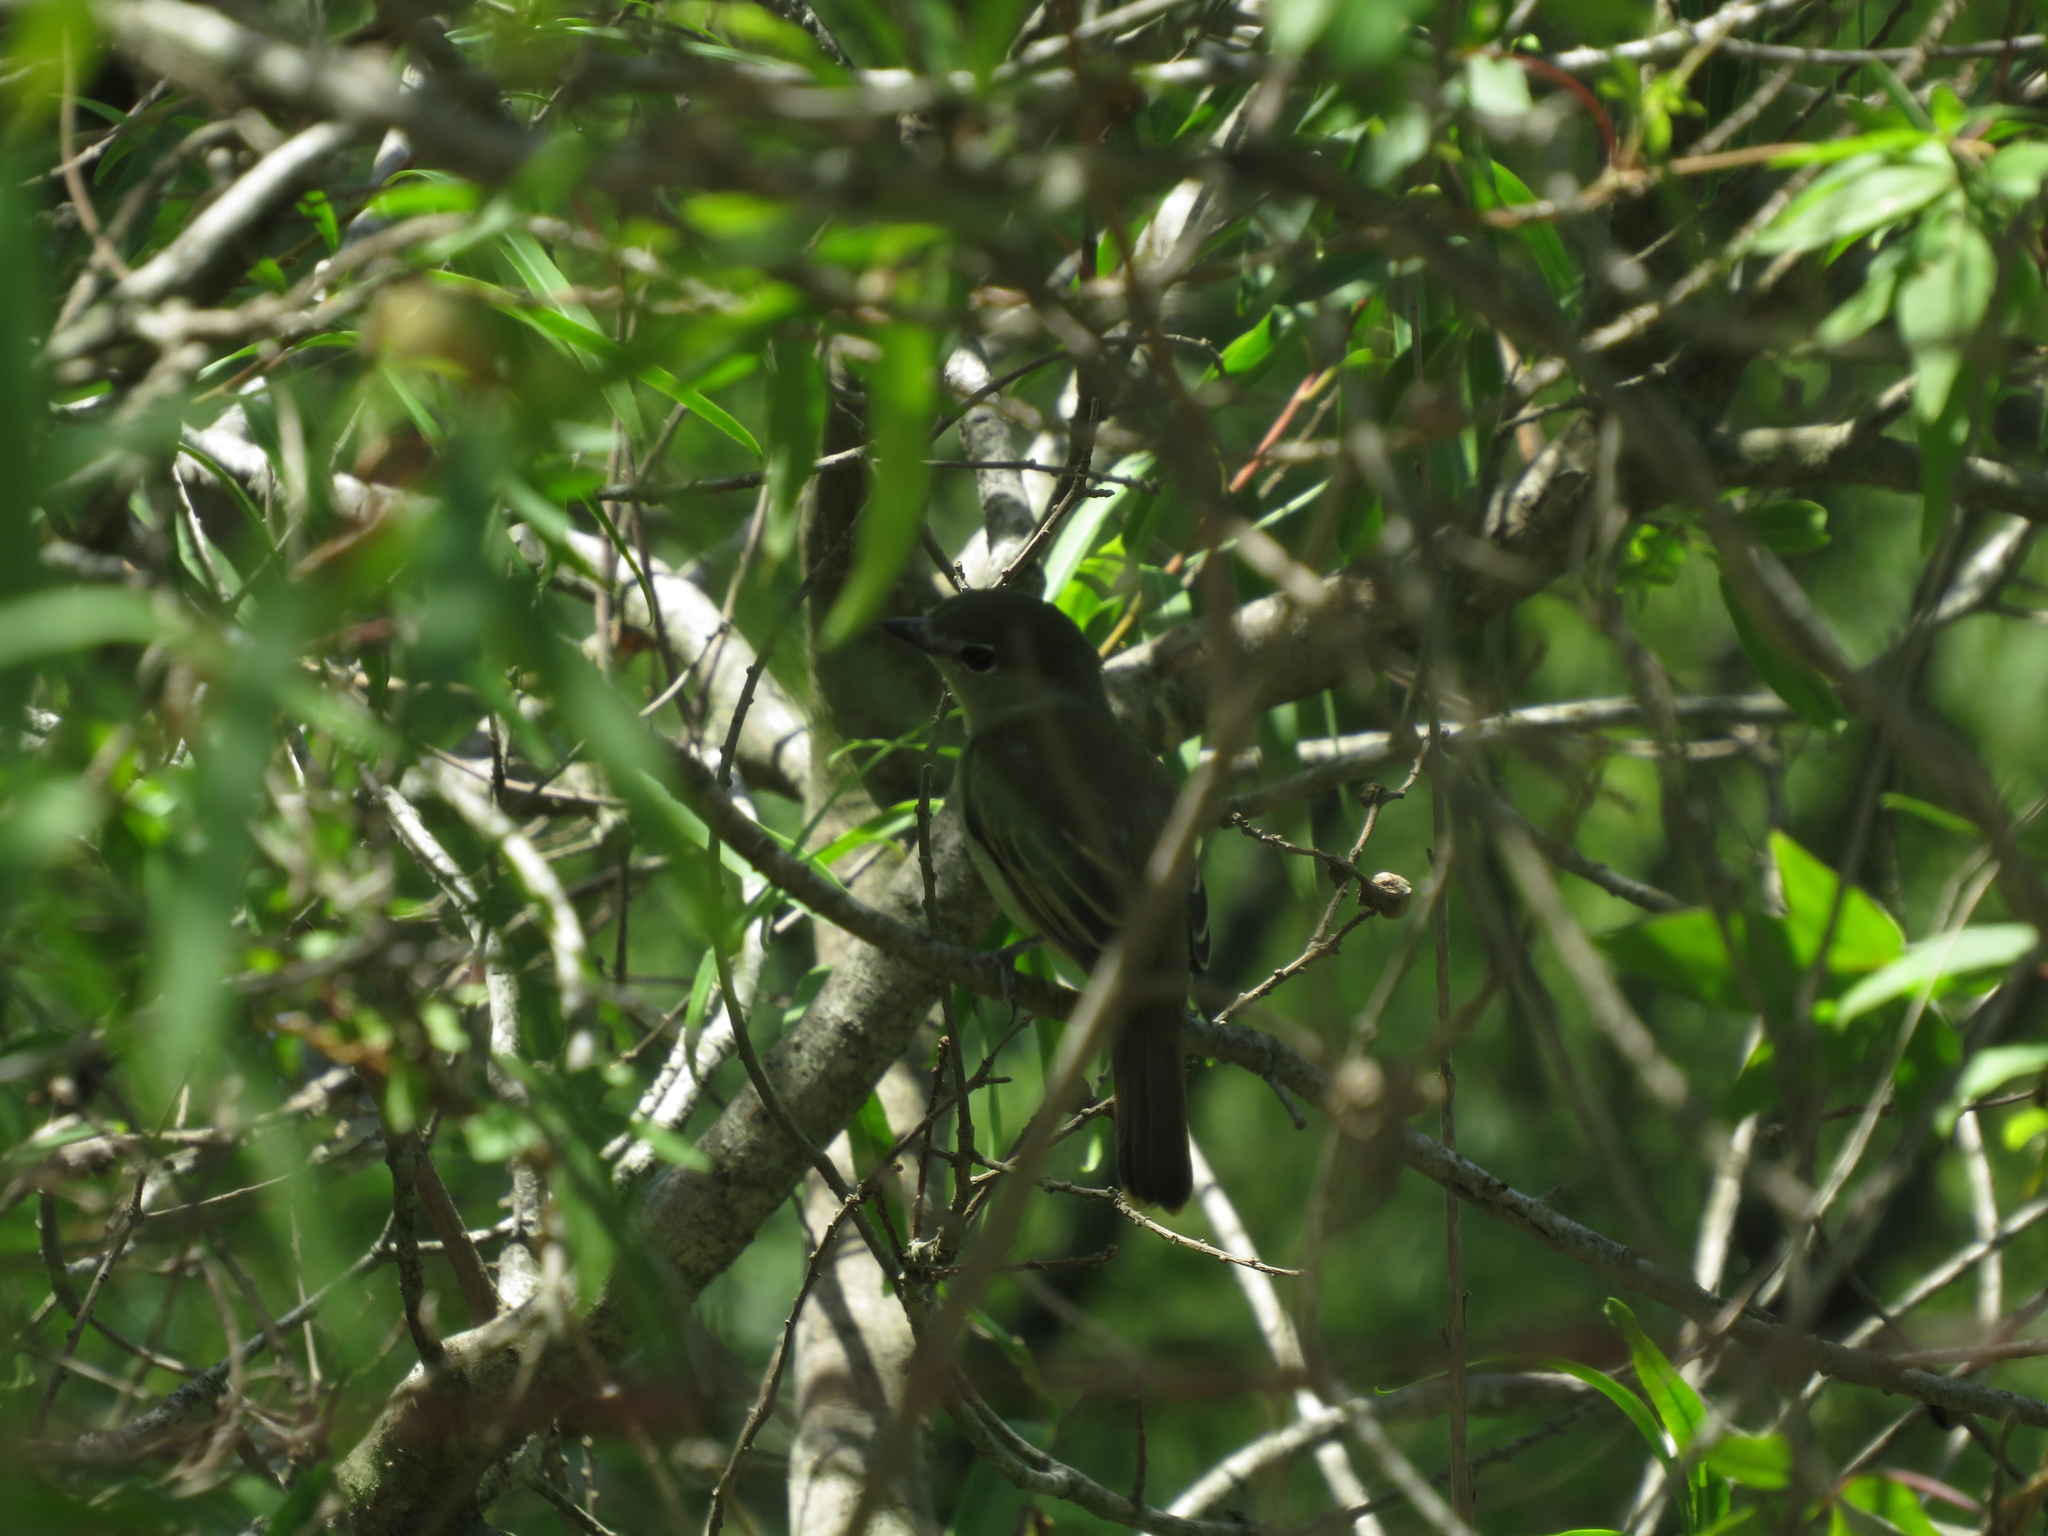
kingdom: Animalia
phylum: Chordata
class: Aves
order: Passeriformes
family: Cotingidae
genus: Pachyramphus
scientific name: Pachyramphus polychopterus
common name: White-winged becard
